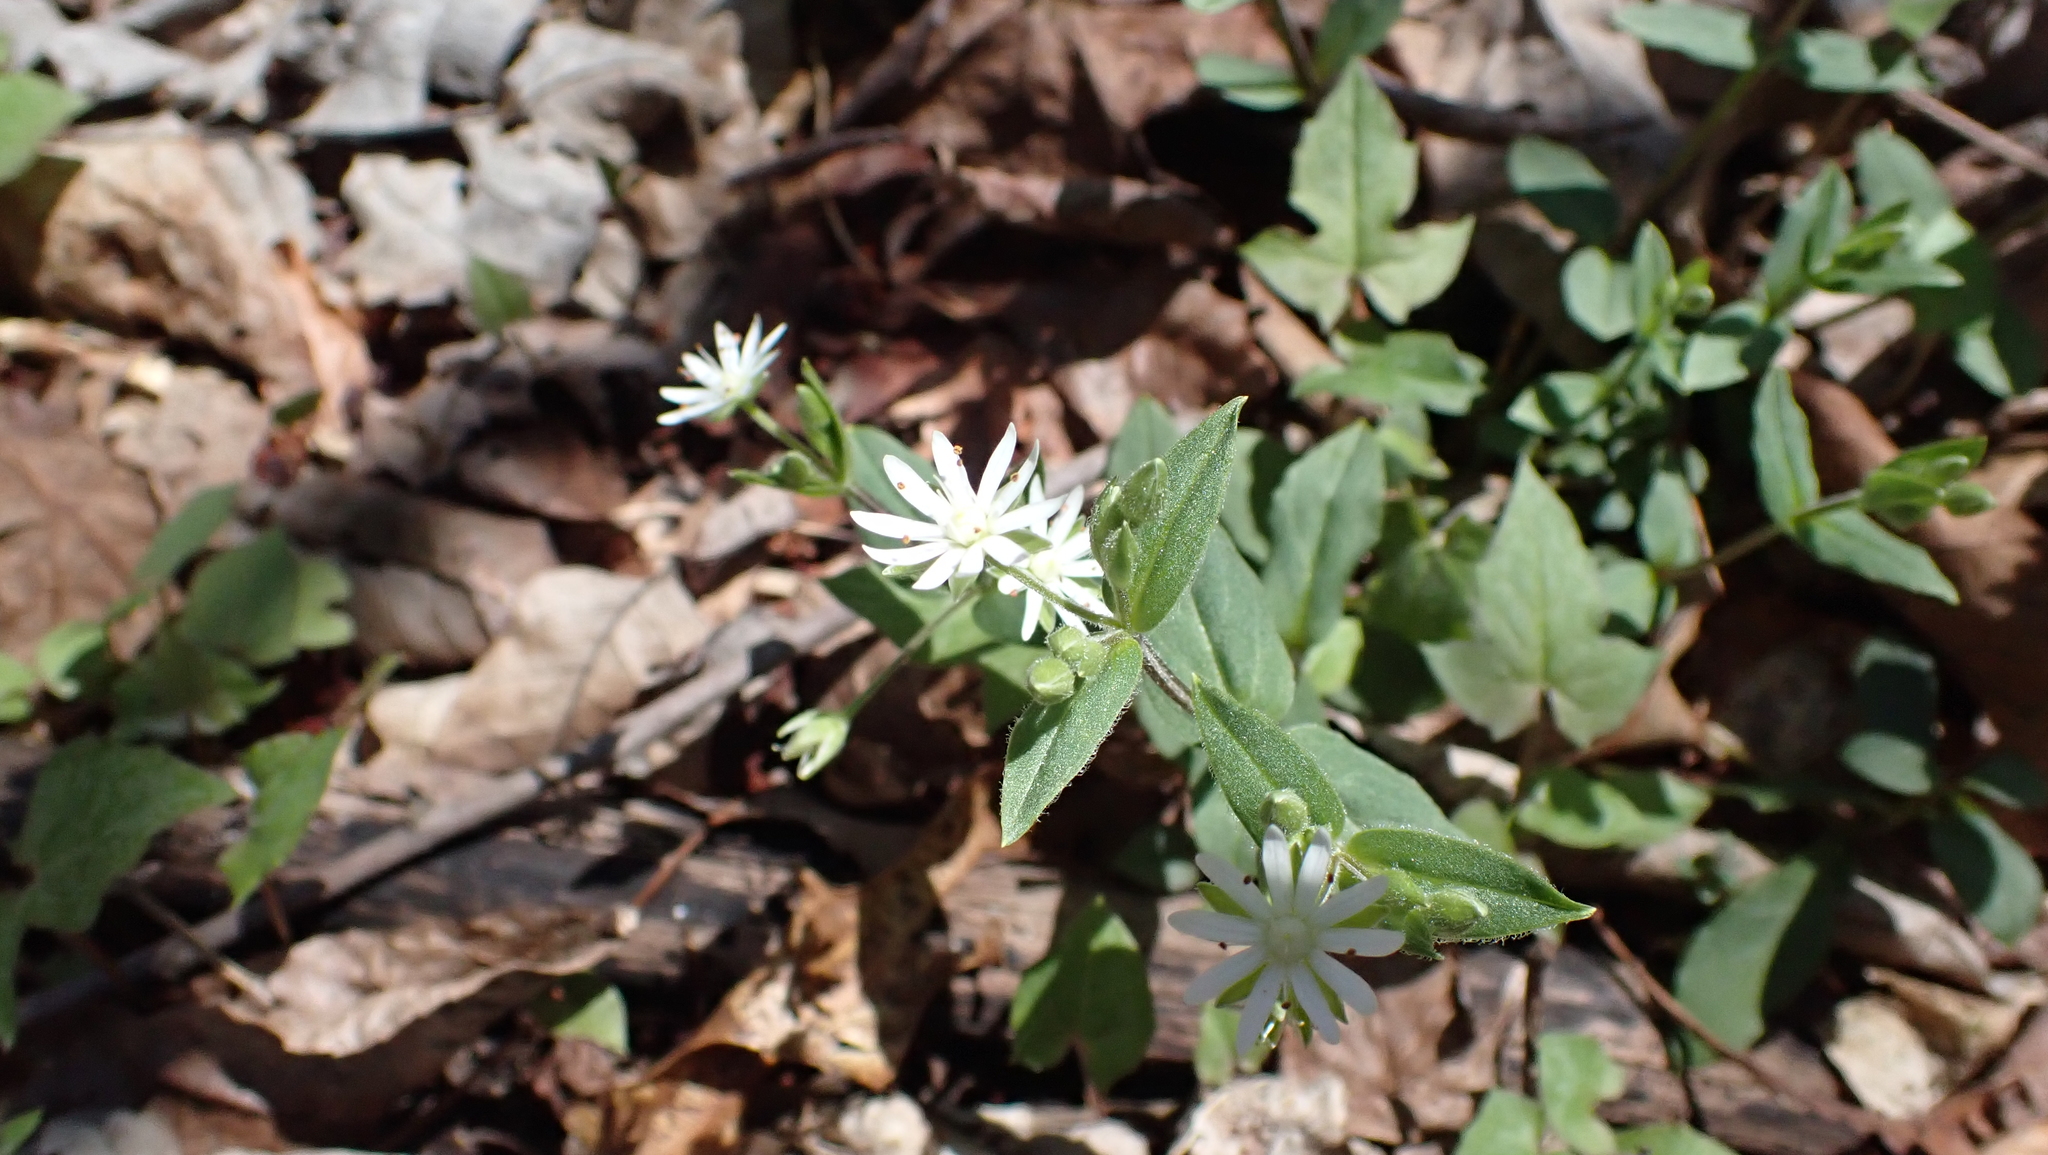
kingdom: Plantae
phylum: Tracheophyta
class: Magnoliopsida
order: Caryophyllales
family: Caryophyllaceae
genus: Stellaria
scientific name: Stellaria pubera
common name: Star chickweed
